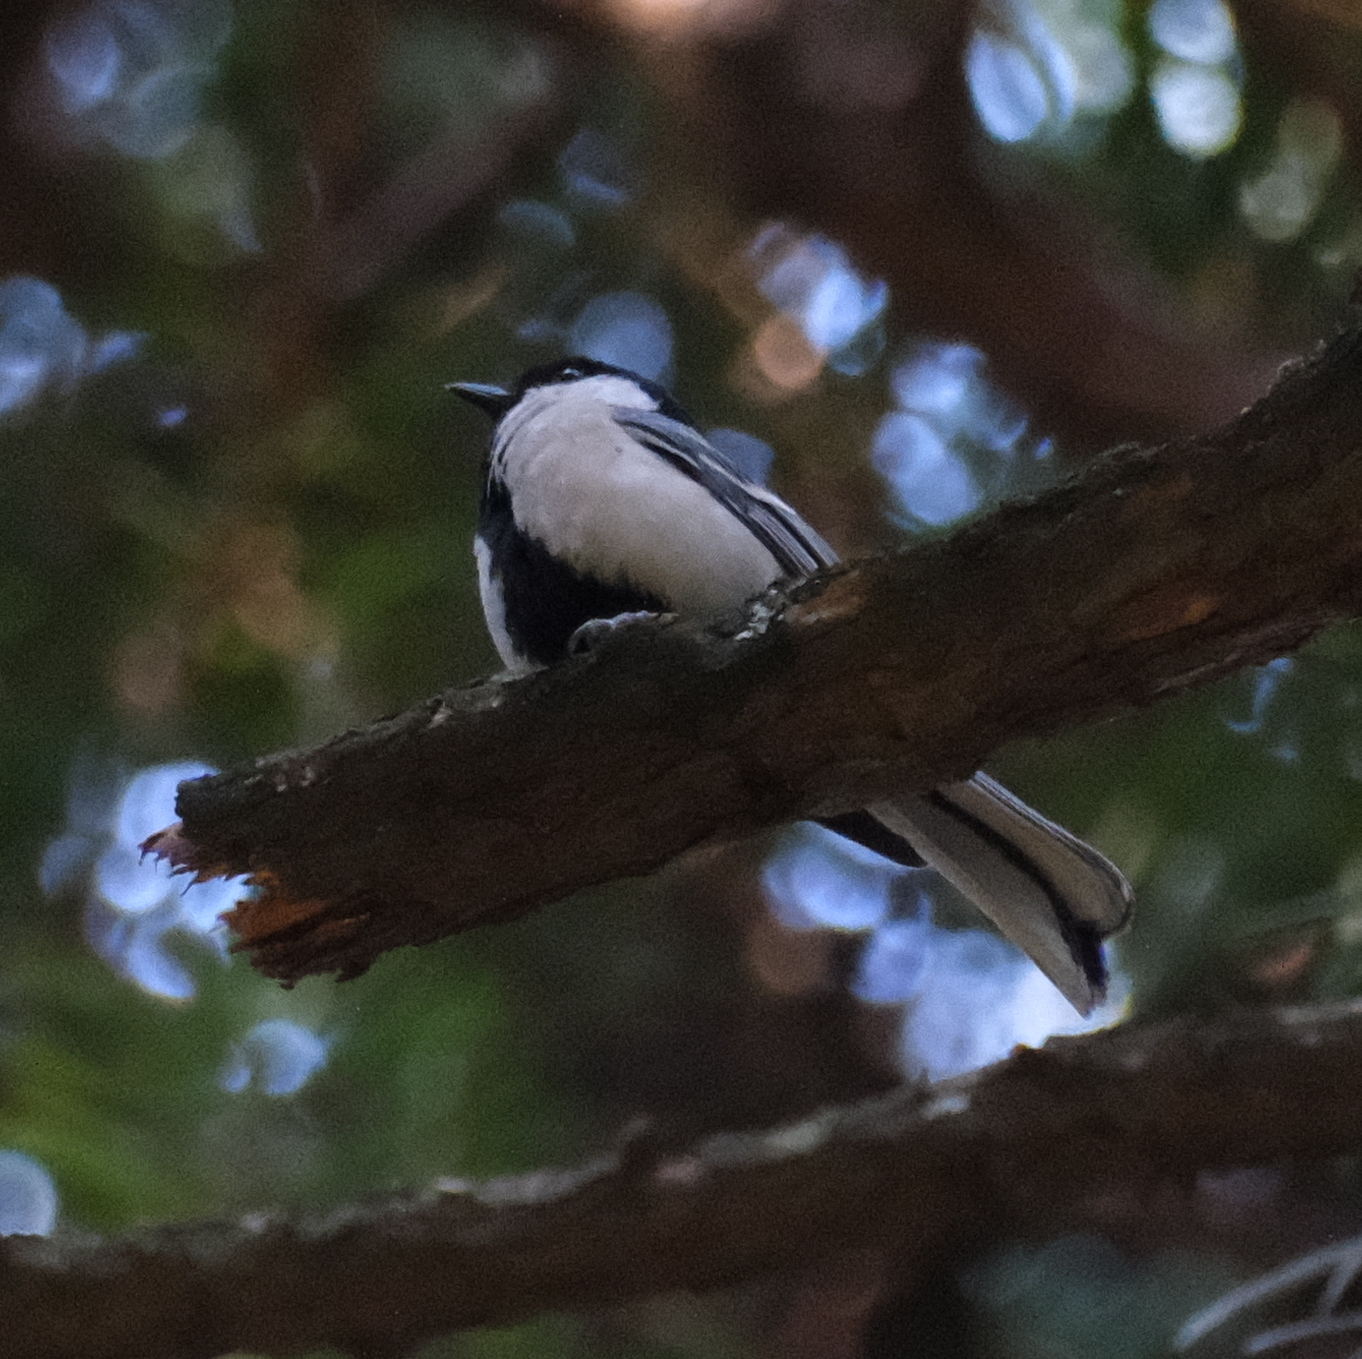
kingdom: Animalia
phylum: Chordata
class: Aves
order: Passeriformes
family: Paridae
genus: Parus
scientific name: Parus minor
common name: Japanese tit
